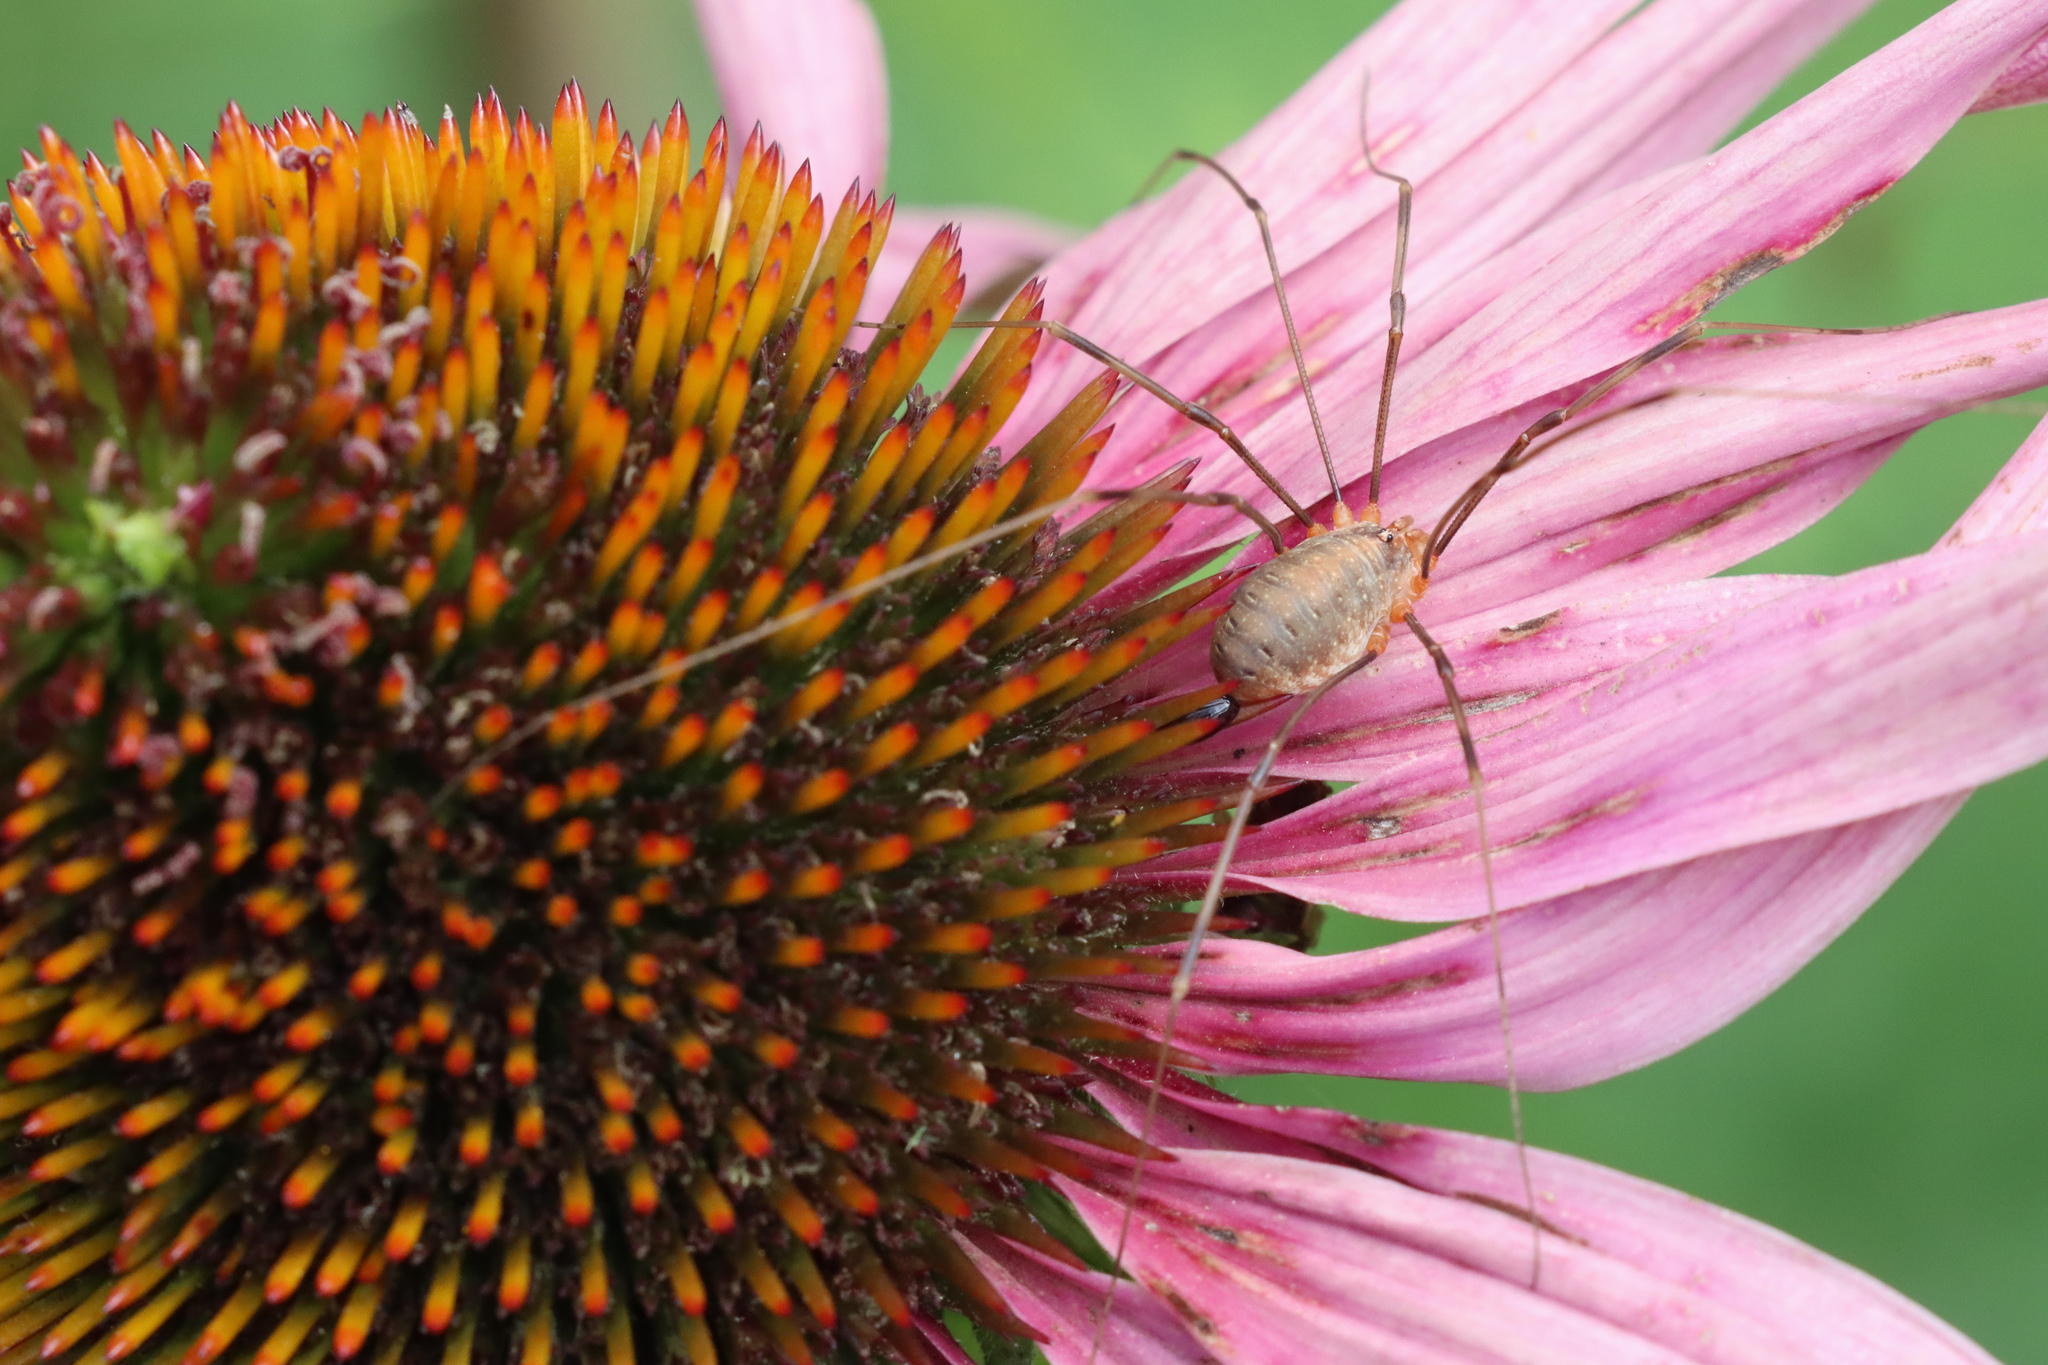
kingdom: Animalia
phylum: Arthropoda
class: Arachnida
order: Opiliones
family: Phalangiidae
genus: Opilio
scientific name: Opilio canestrinii
